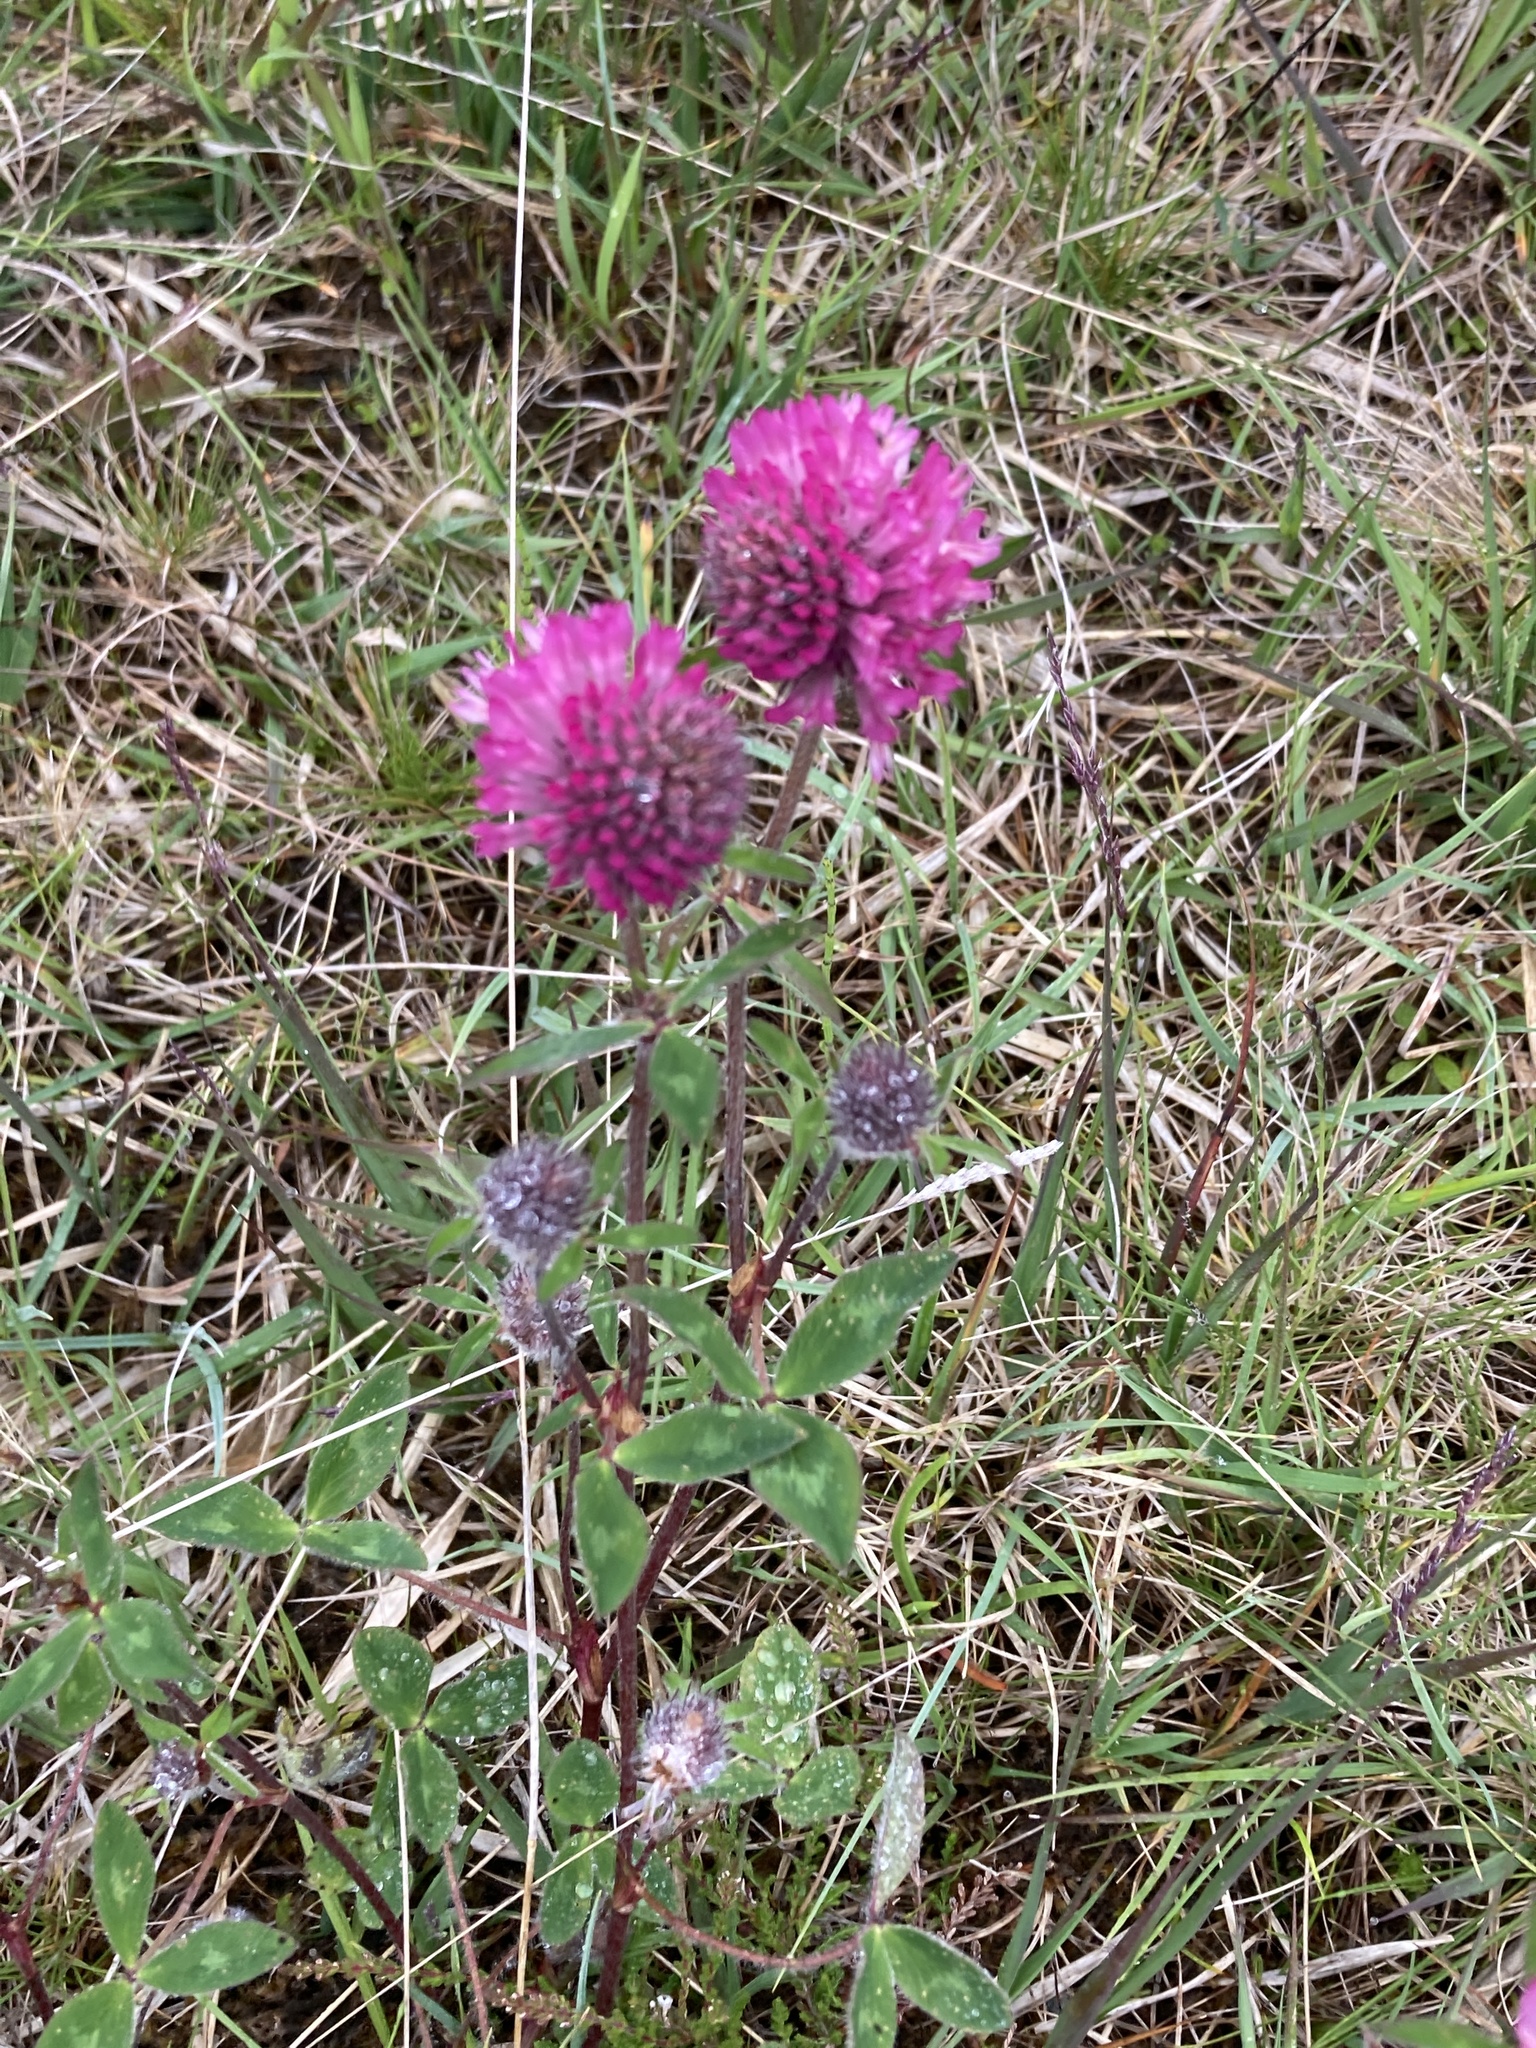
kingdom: Plantae
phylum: Tracheophyta
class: Magnoliopsida
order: Fabales
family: Fabaceae
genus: Trifolium
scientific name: Trifolium pratense
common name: Red clover
